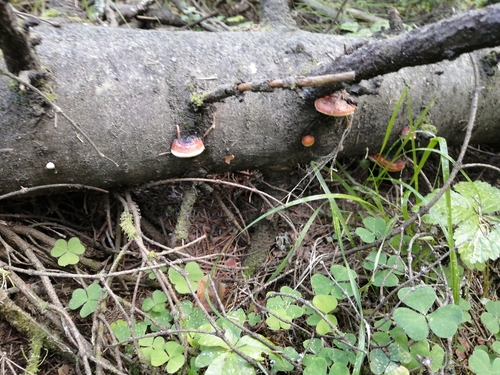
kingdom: Fungi
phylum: Basidiomycota
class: Agaricomycetes
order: Polyporales
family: Fomitopsidaceae
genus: Fomitopsis
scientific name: Fomitopsis pinicola
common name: Red-belted bracket
